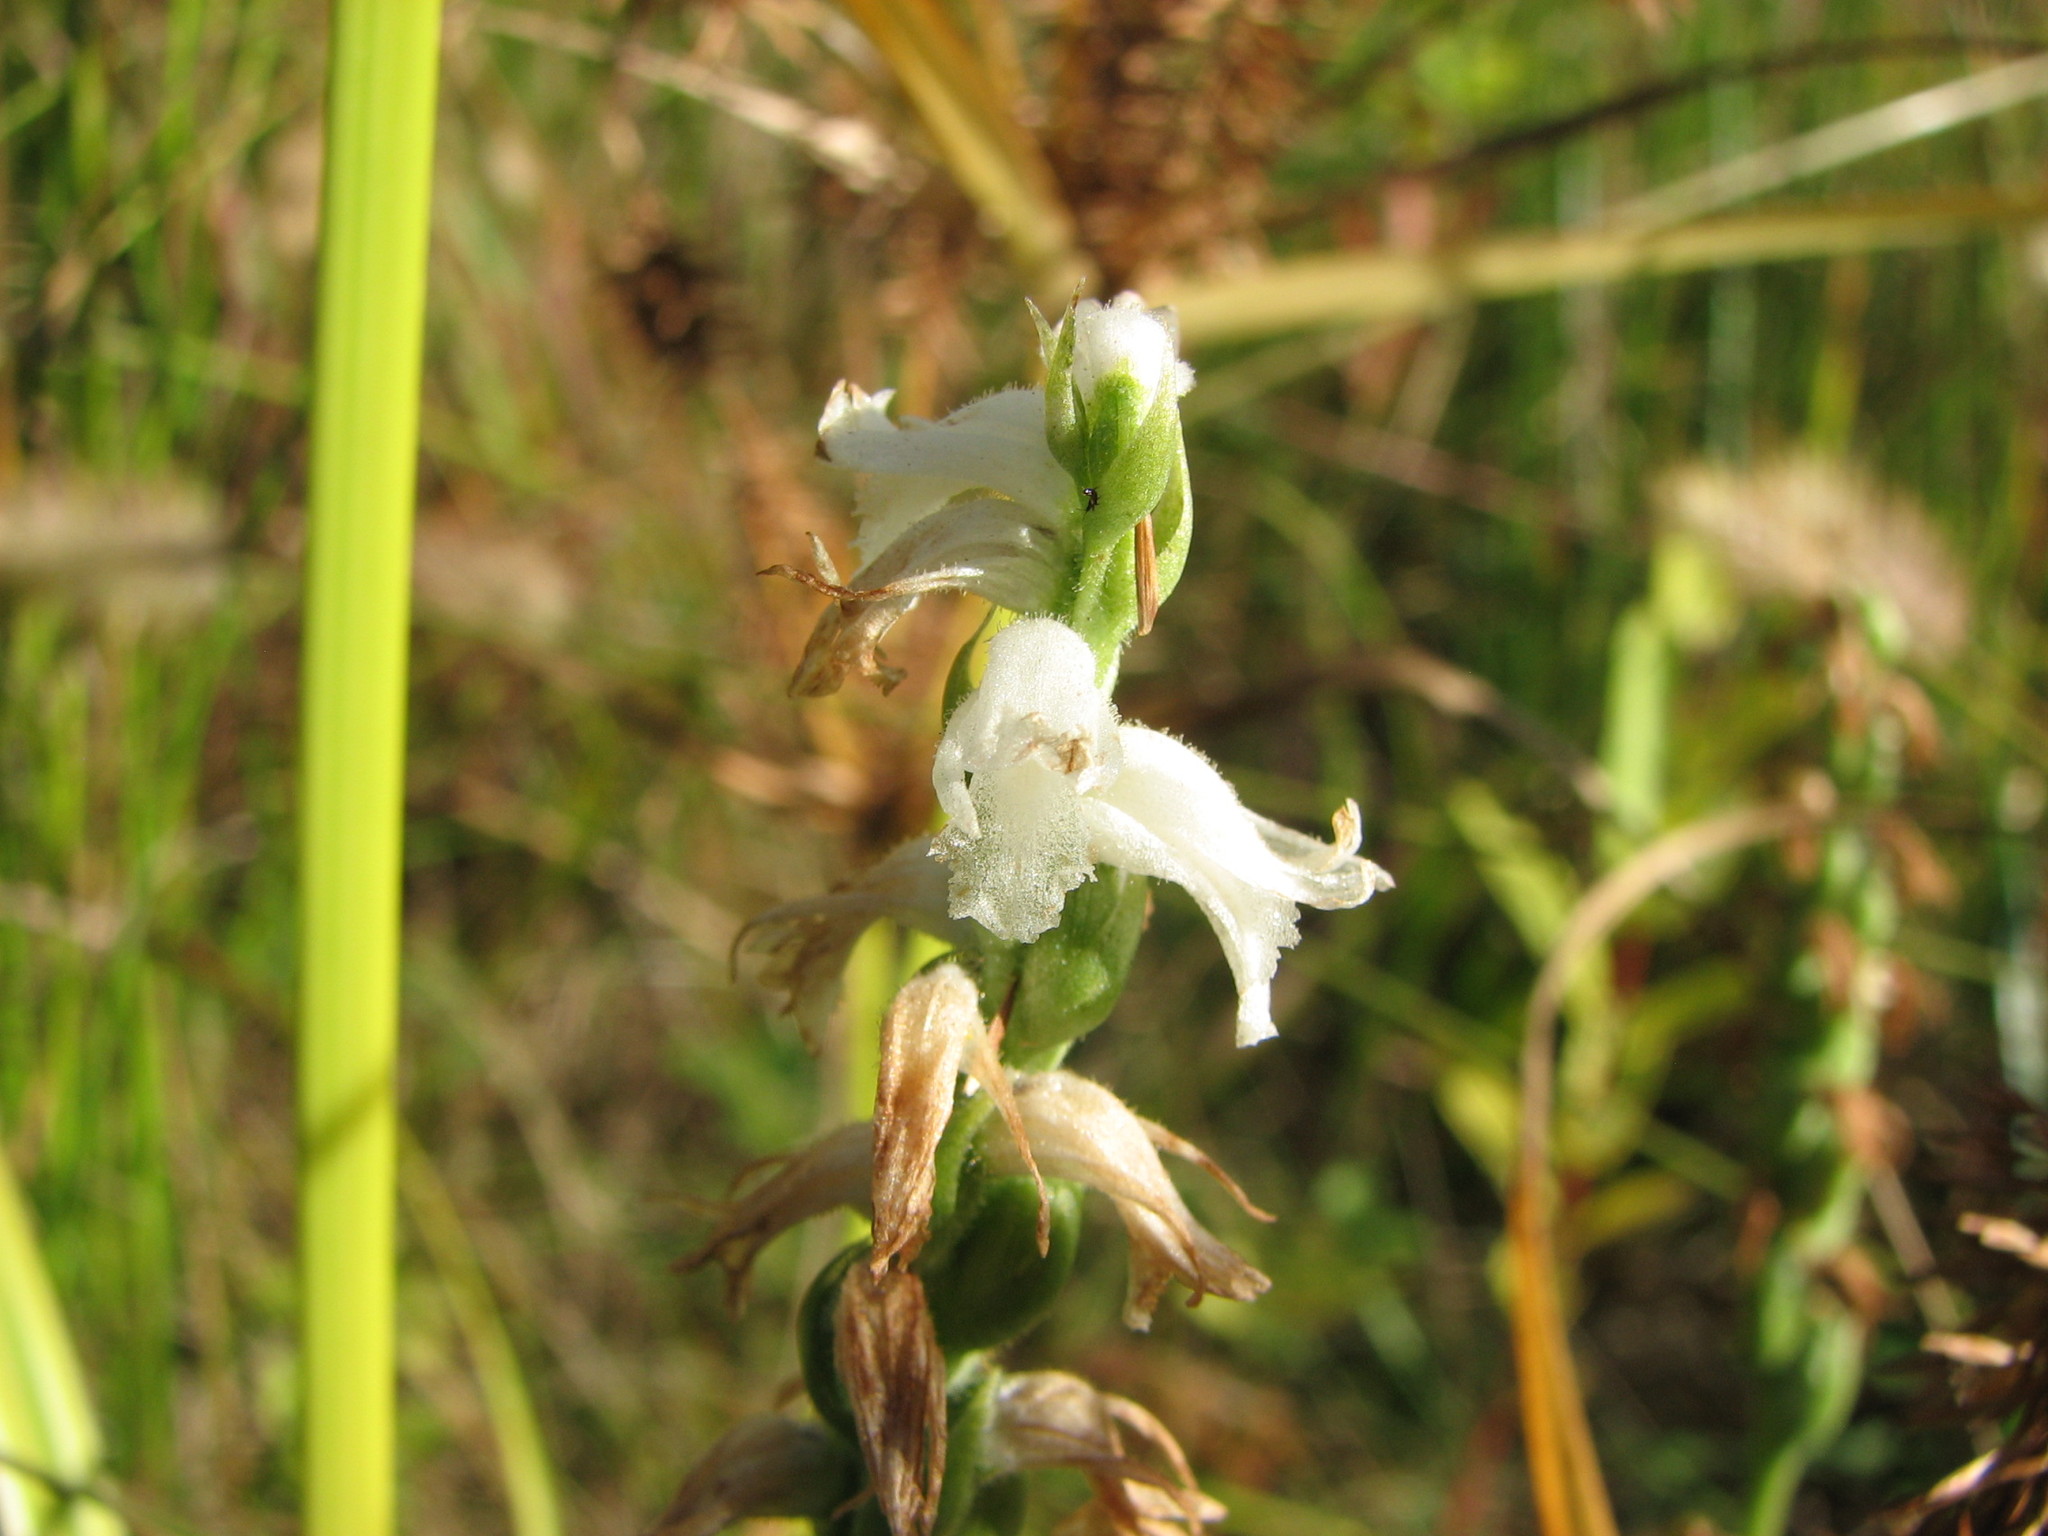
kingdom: Plantae
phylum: Tracheophyta
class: Liliopsida
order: Asparagales
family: Orchidaceae
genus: Spiranthes
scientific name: Spiranthes cernua
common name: Dropping ladies'-tresses
